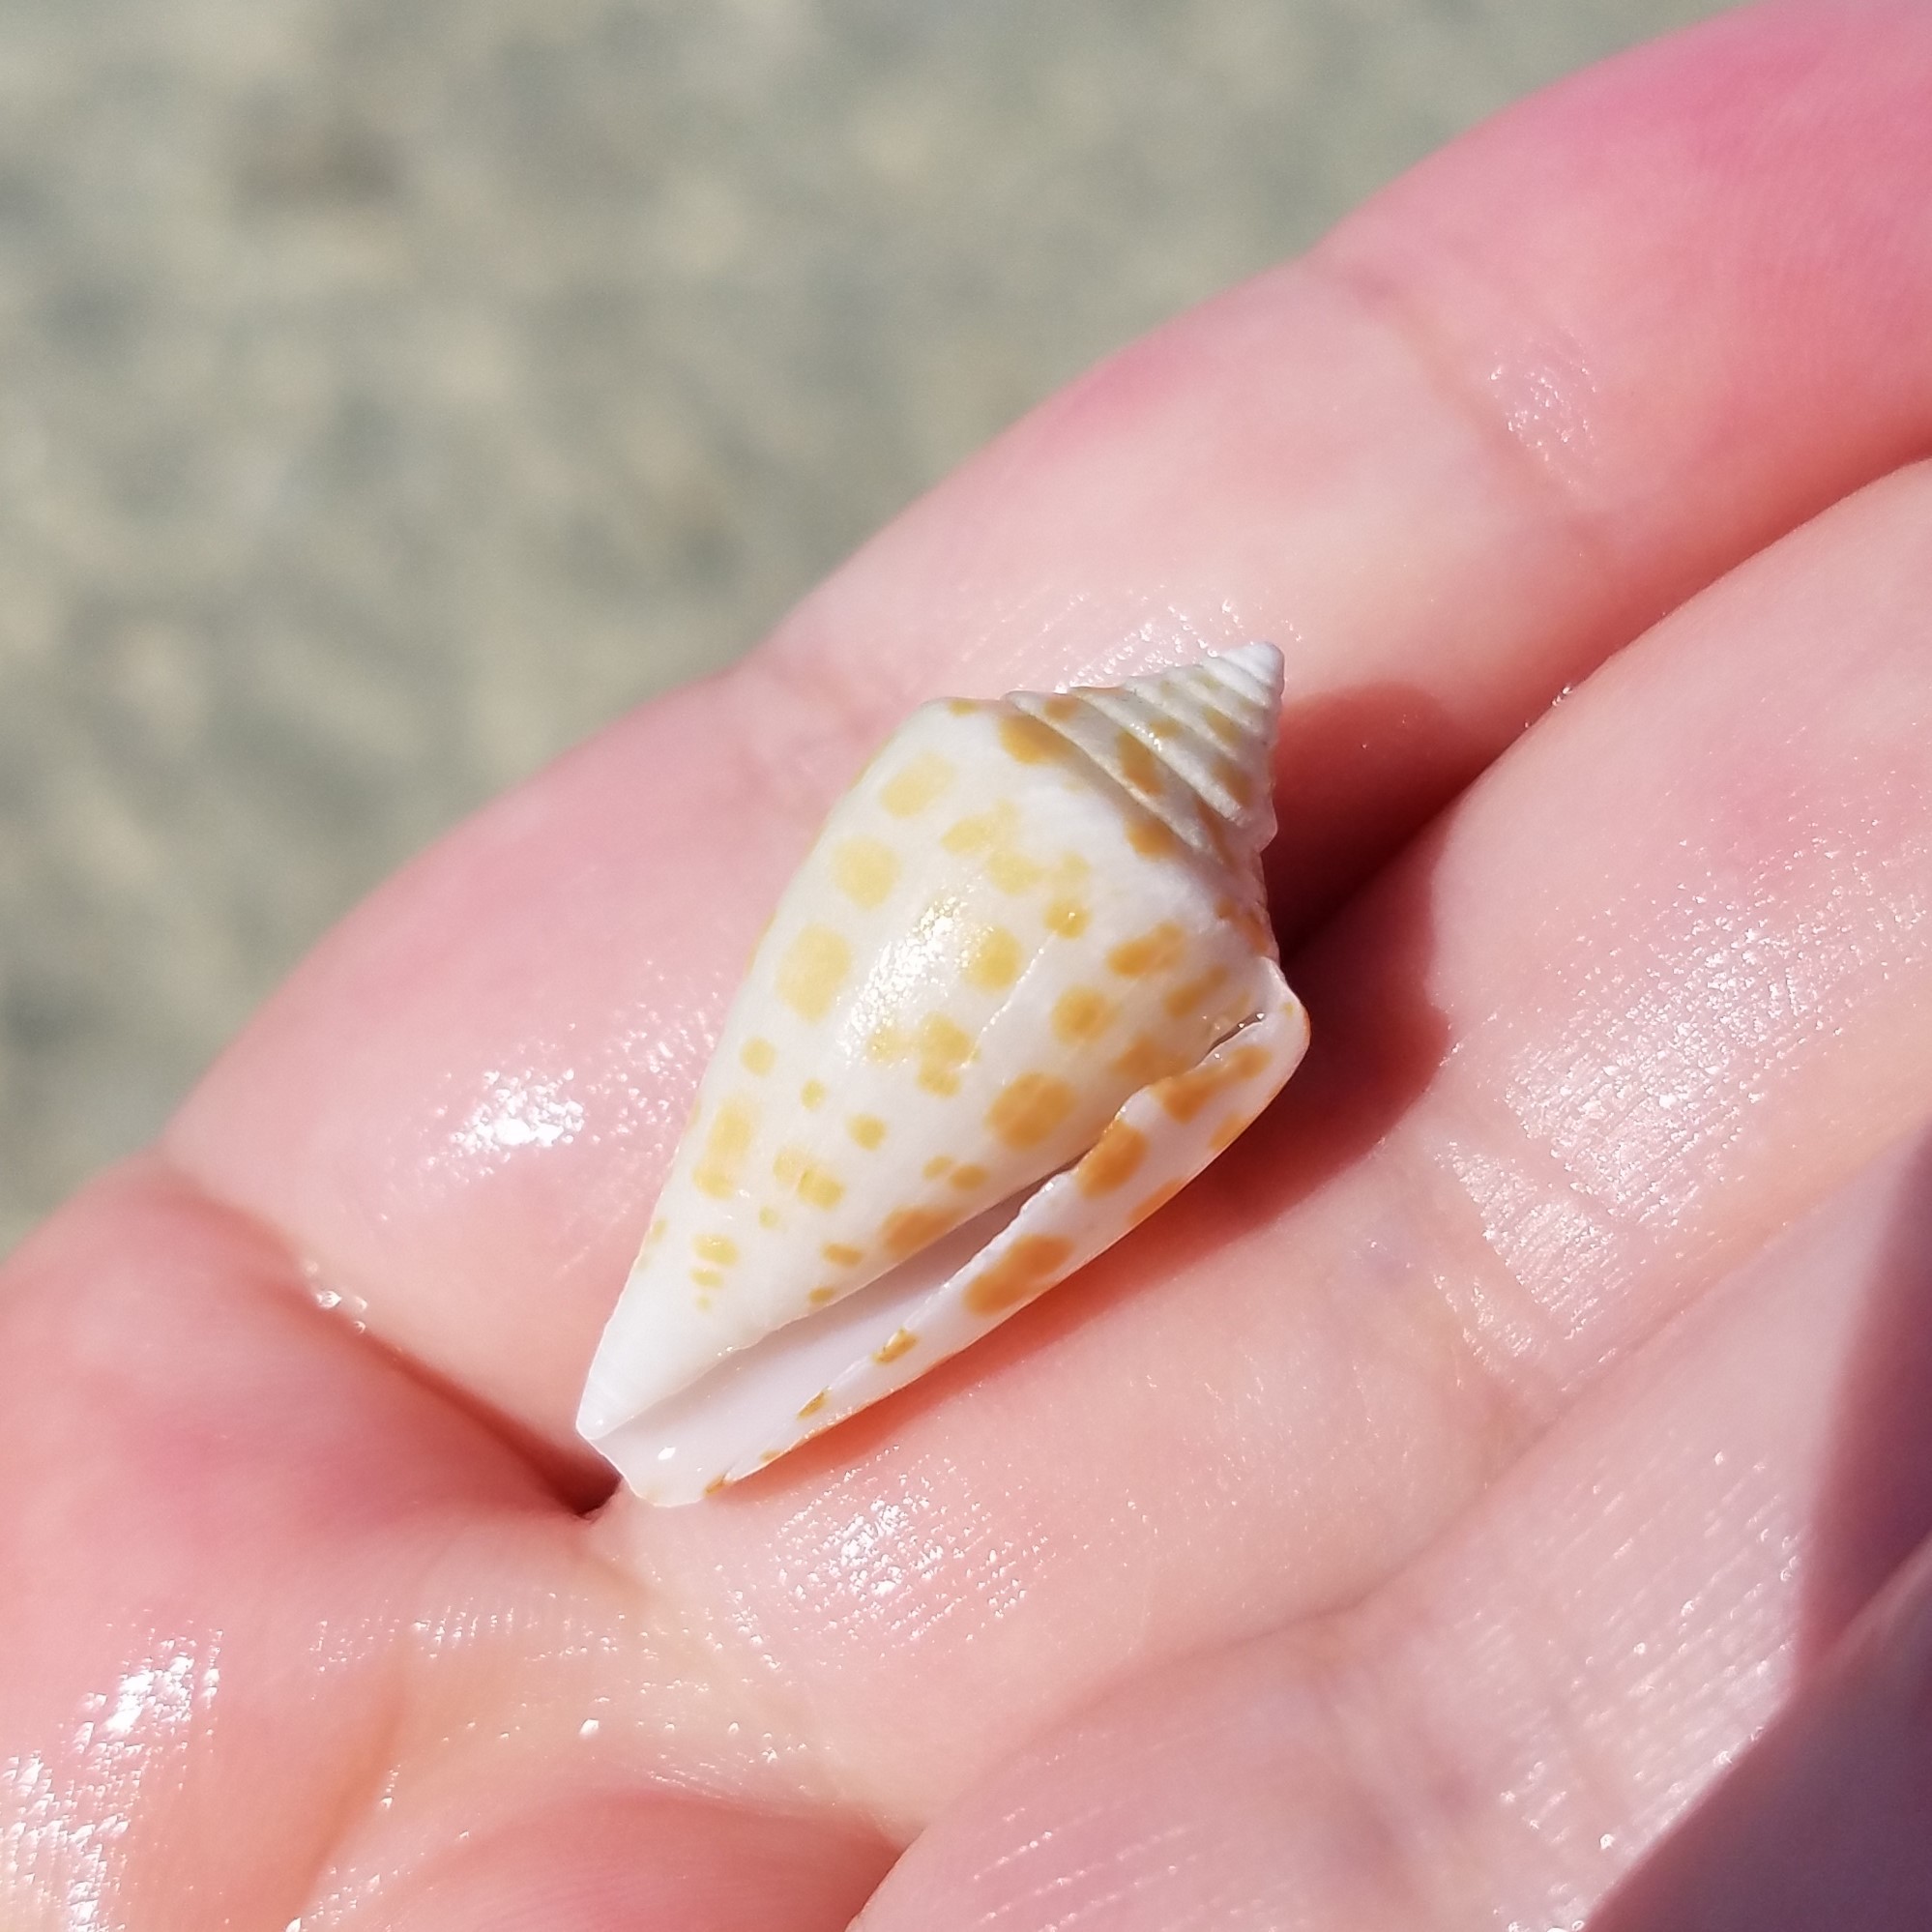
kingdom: Animalia
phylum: Mollusca
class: Gastropoda
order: Neogastropoda
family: Conidae
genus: Conus
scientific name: Conus spurius
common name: Alphabet cone
